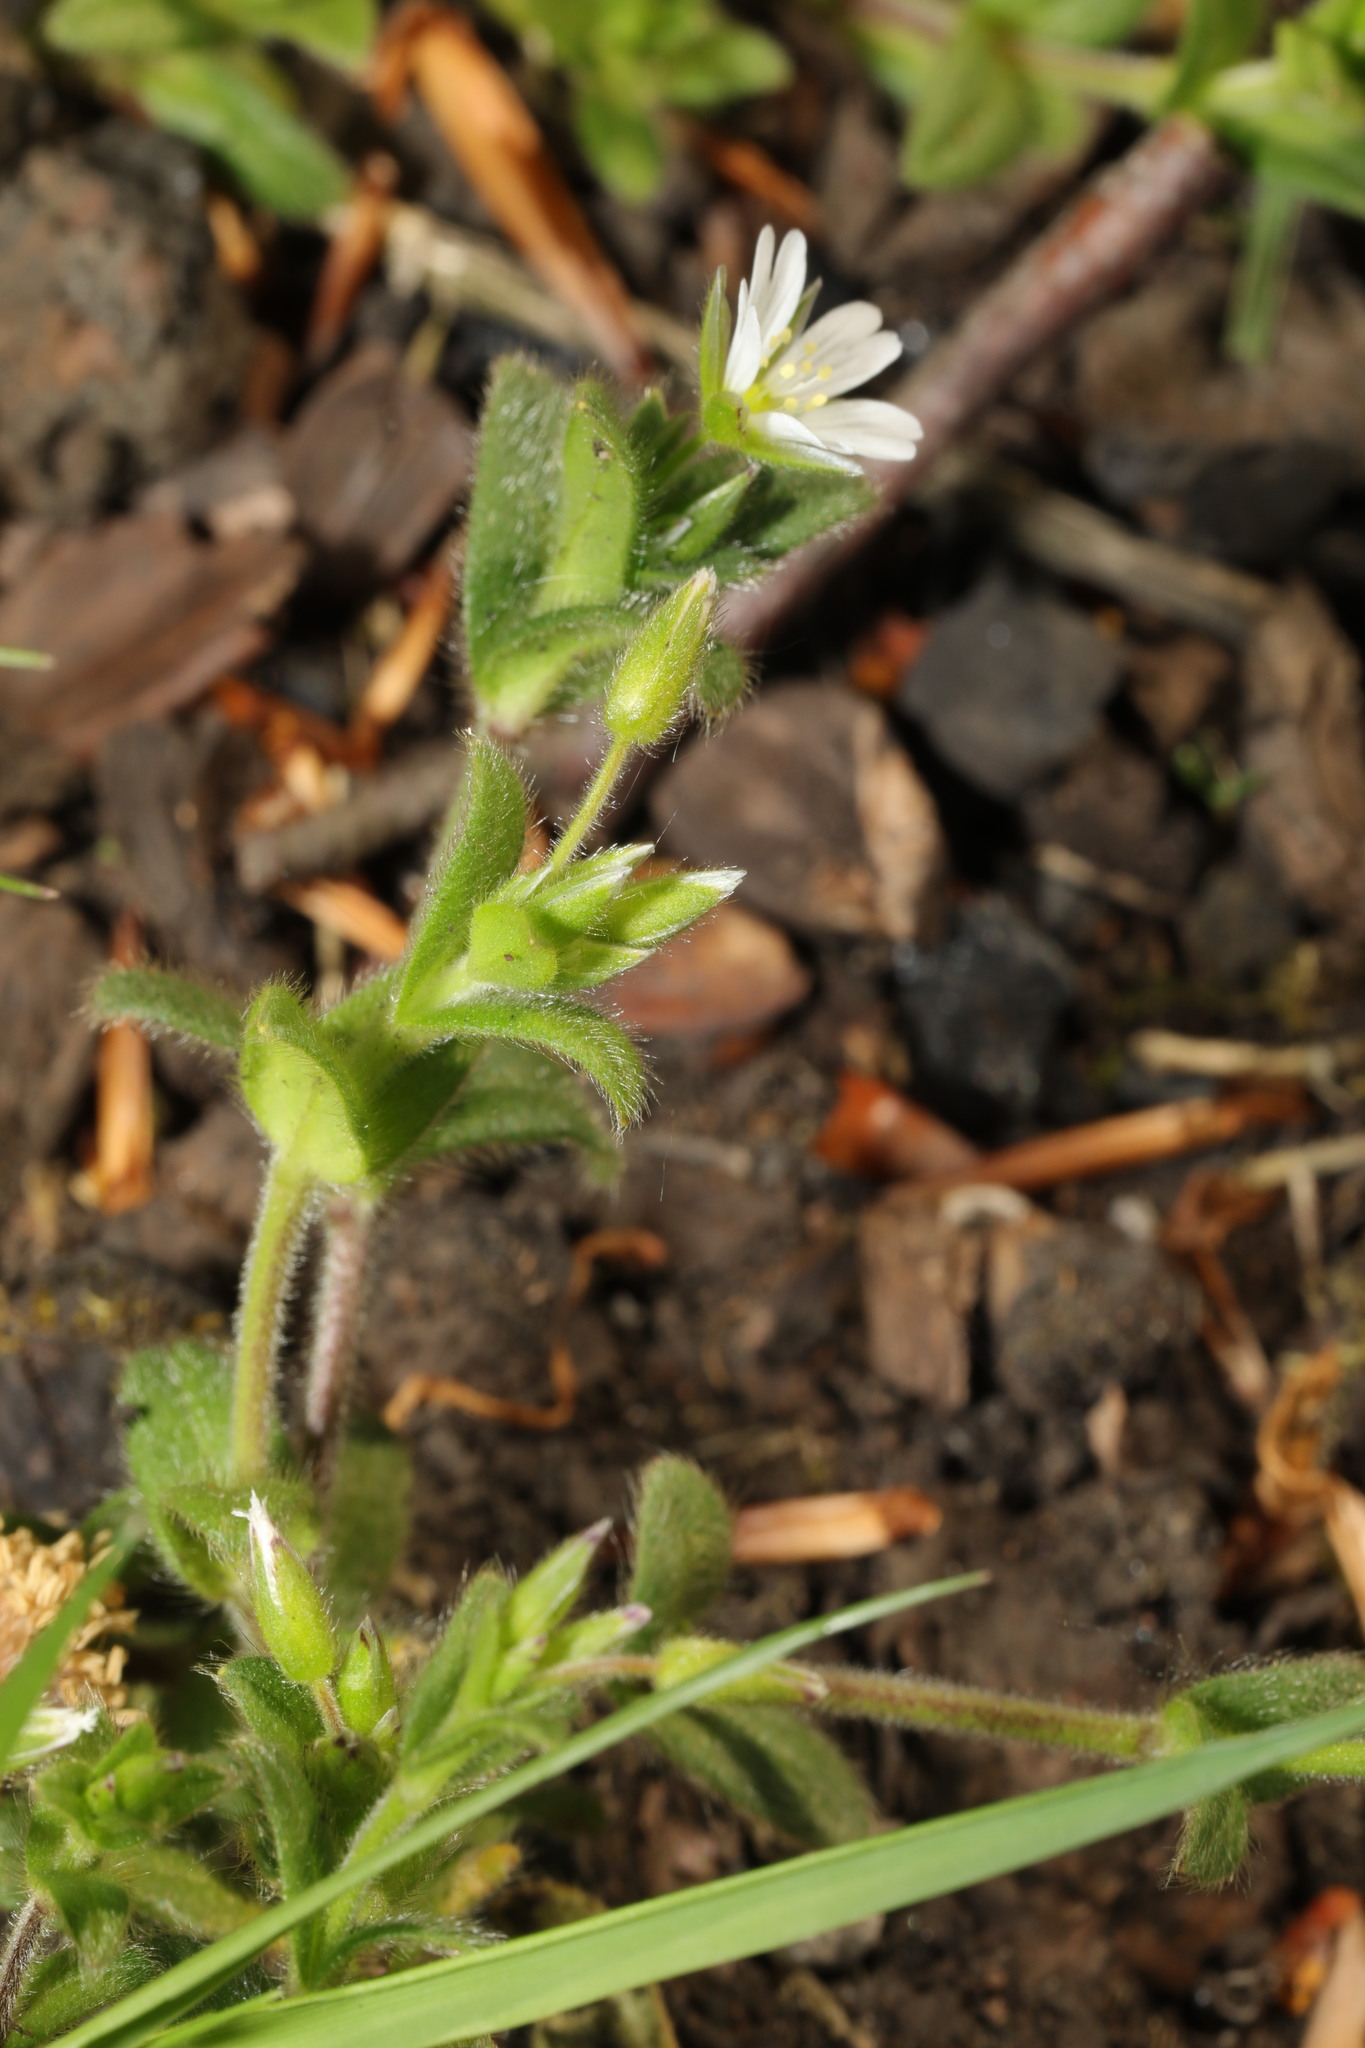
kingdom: Plantae
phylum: Tracheophyta
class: Magnoliopsida
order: Caryophyllales
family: Caryophyllaceae
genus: Cerastium
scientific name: Cerastium fontanum
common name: Common mouse-ear
